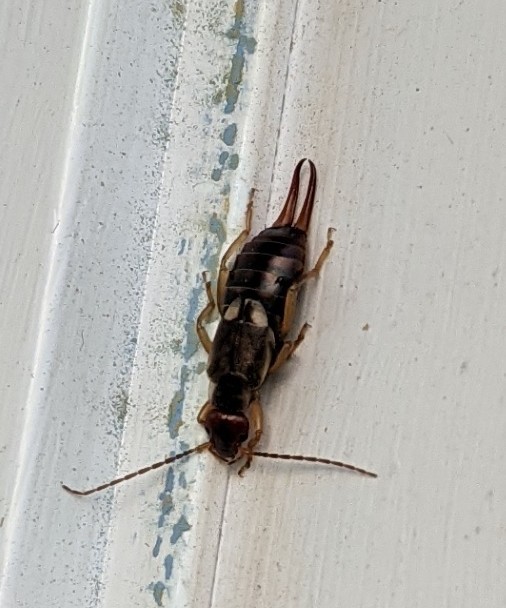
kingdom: Animalia
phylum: Arthropoda
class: Insecta
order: Dermaptera
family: Forficulidae
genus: Forficula
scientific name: Forficula
